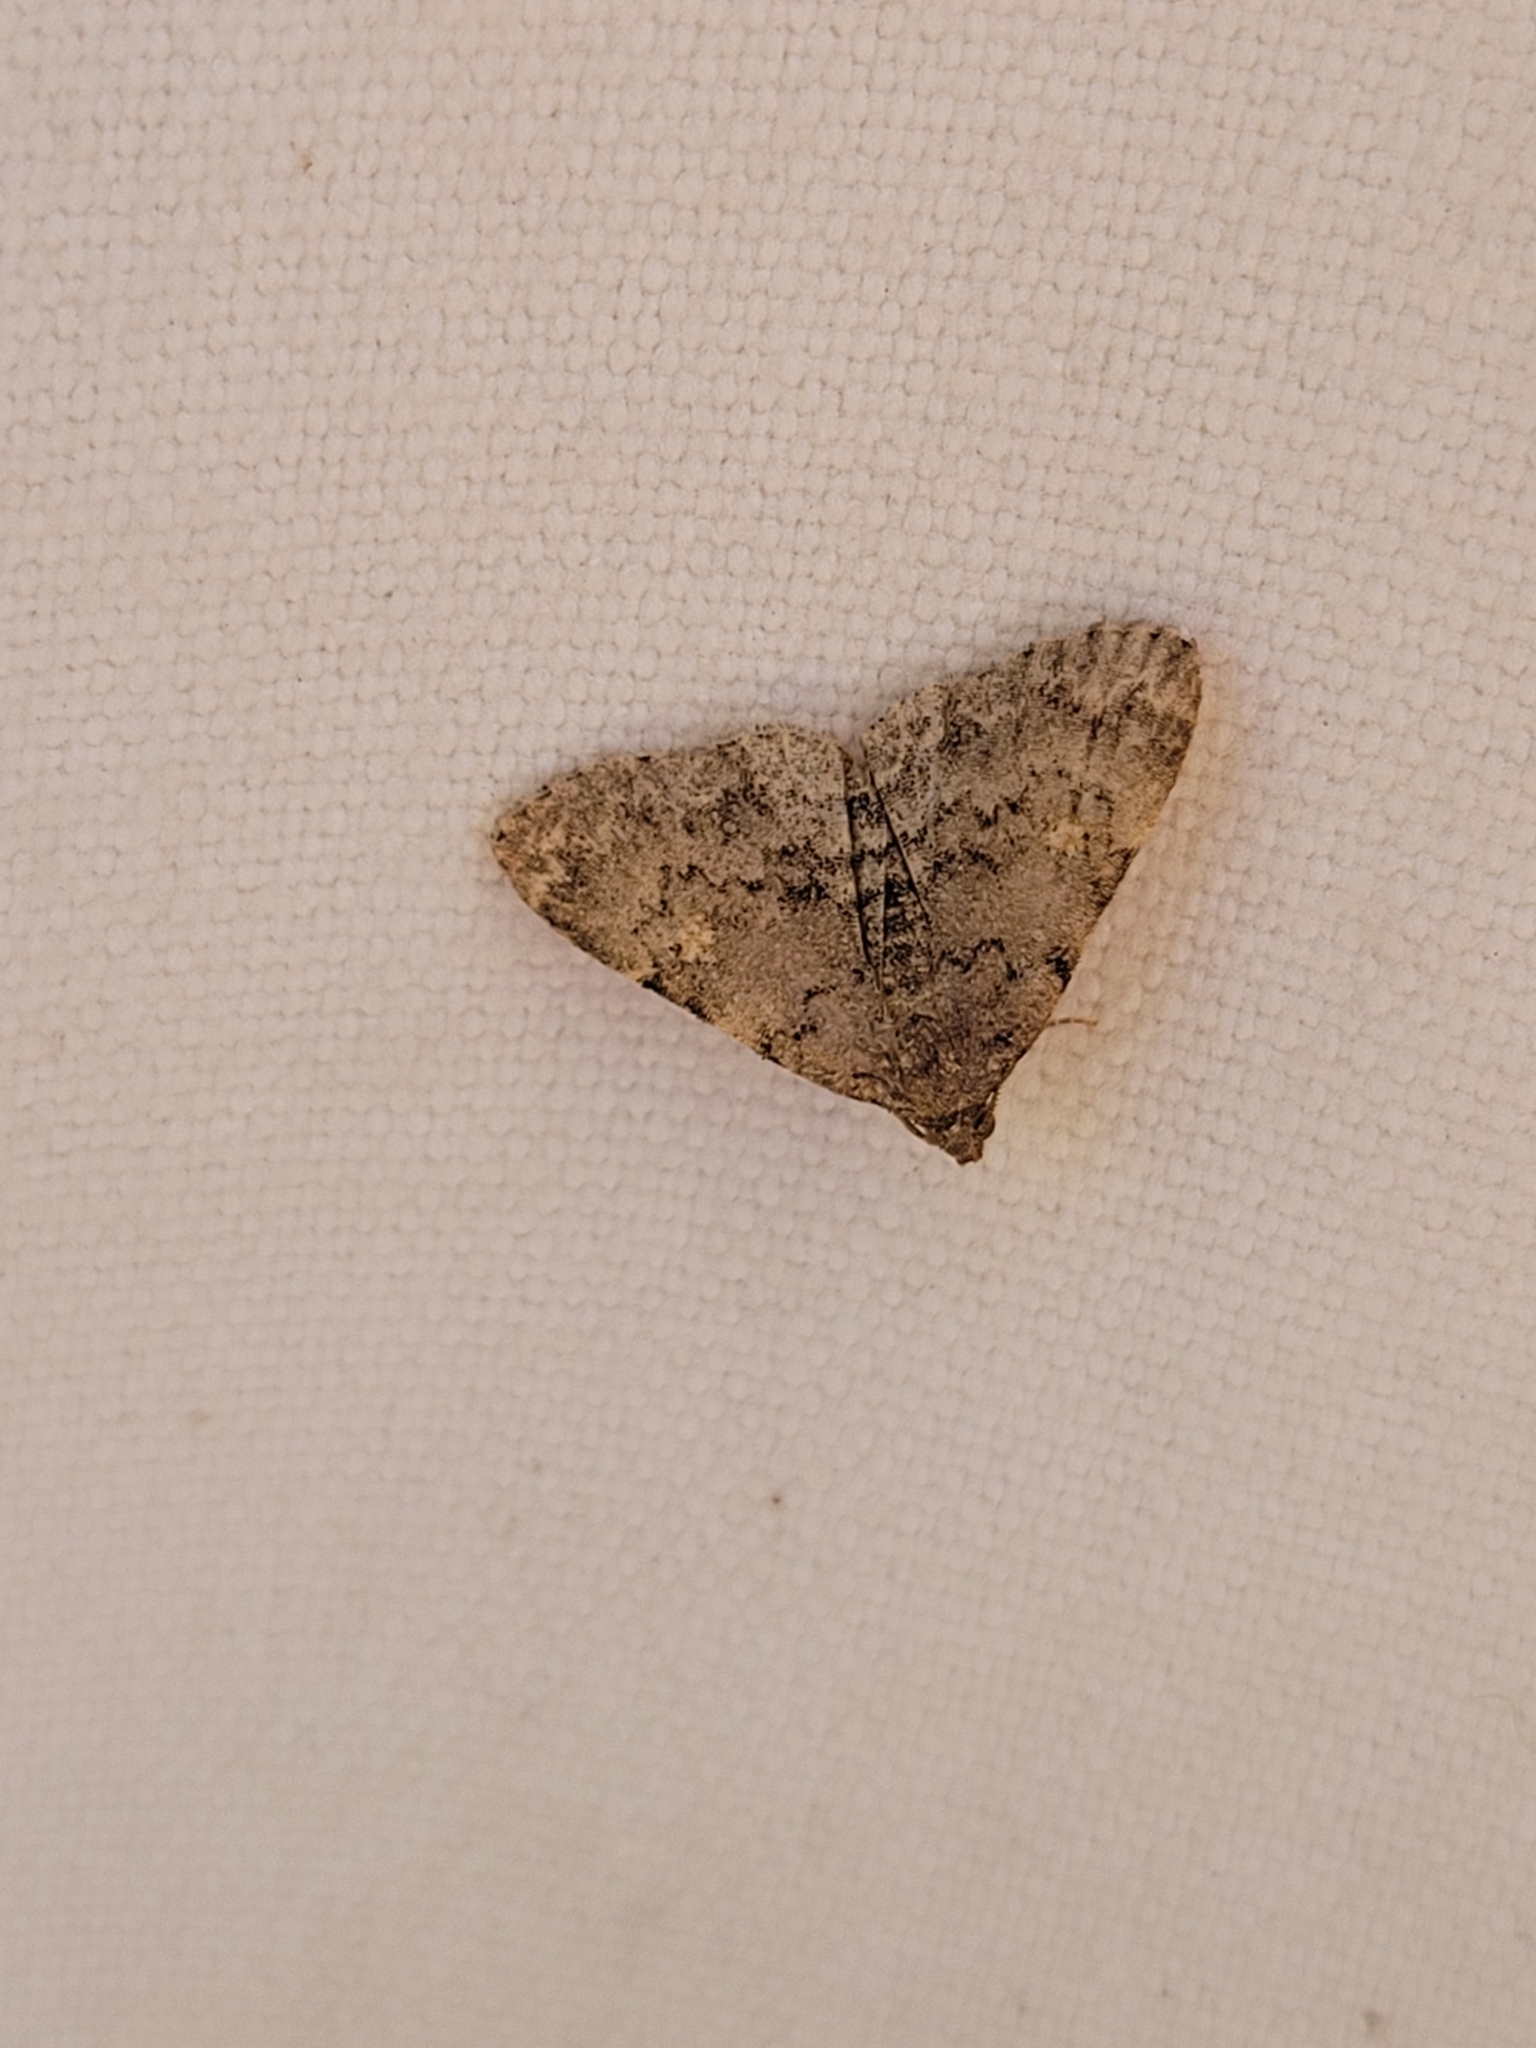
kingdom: Animalia
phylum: Arthropoda
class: Insecta
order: Lepidoptera
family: Erebidae
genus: Idia
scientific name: Idia aemula
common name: Common idia moth
